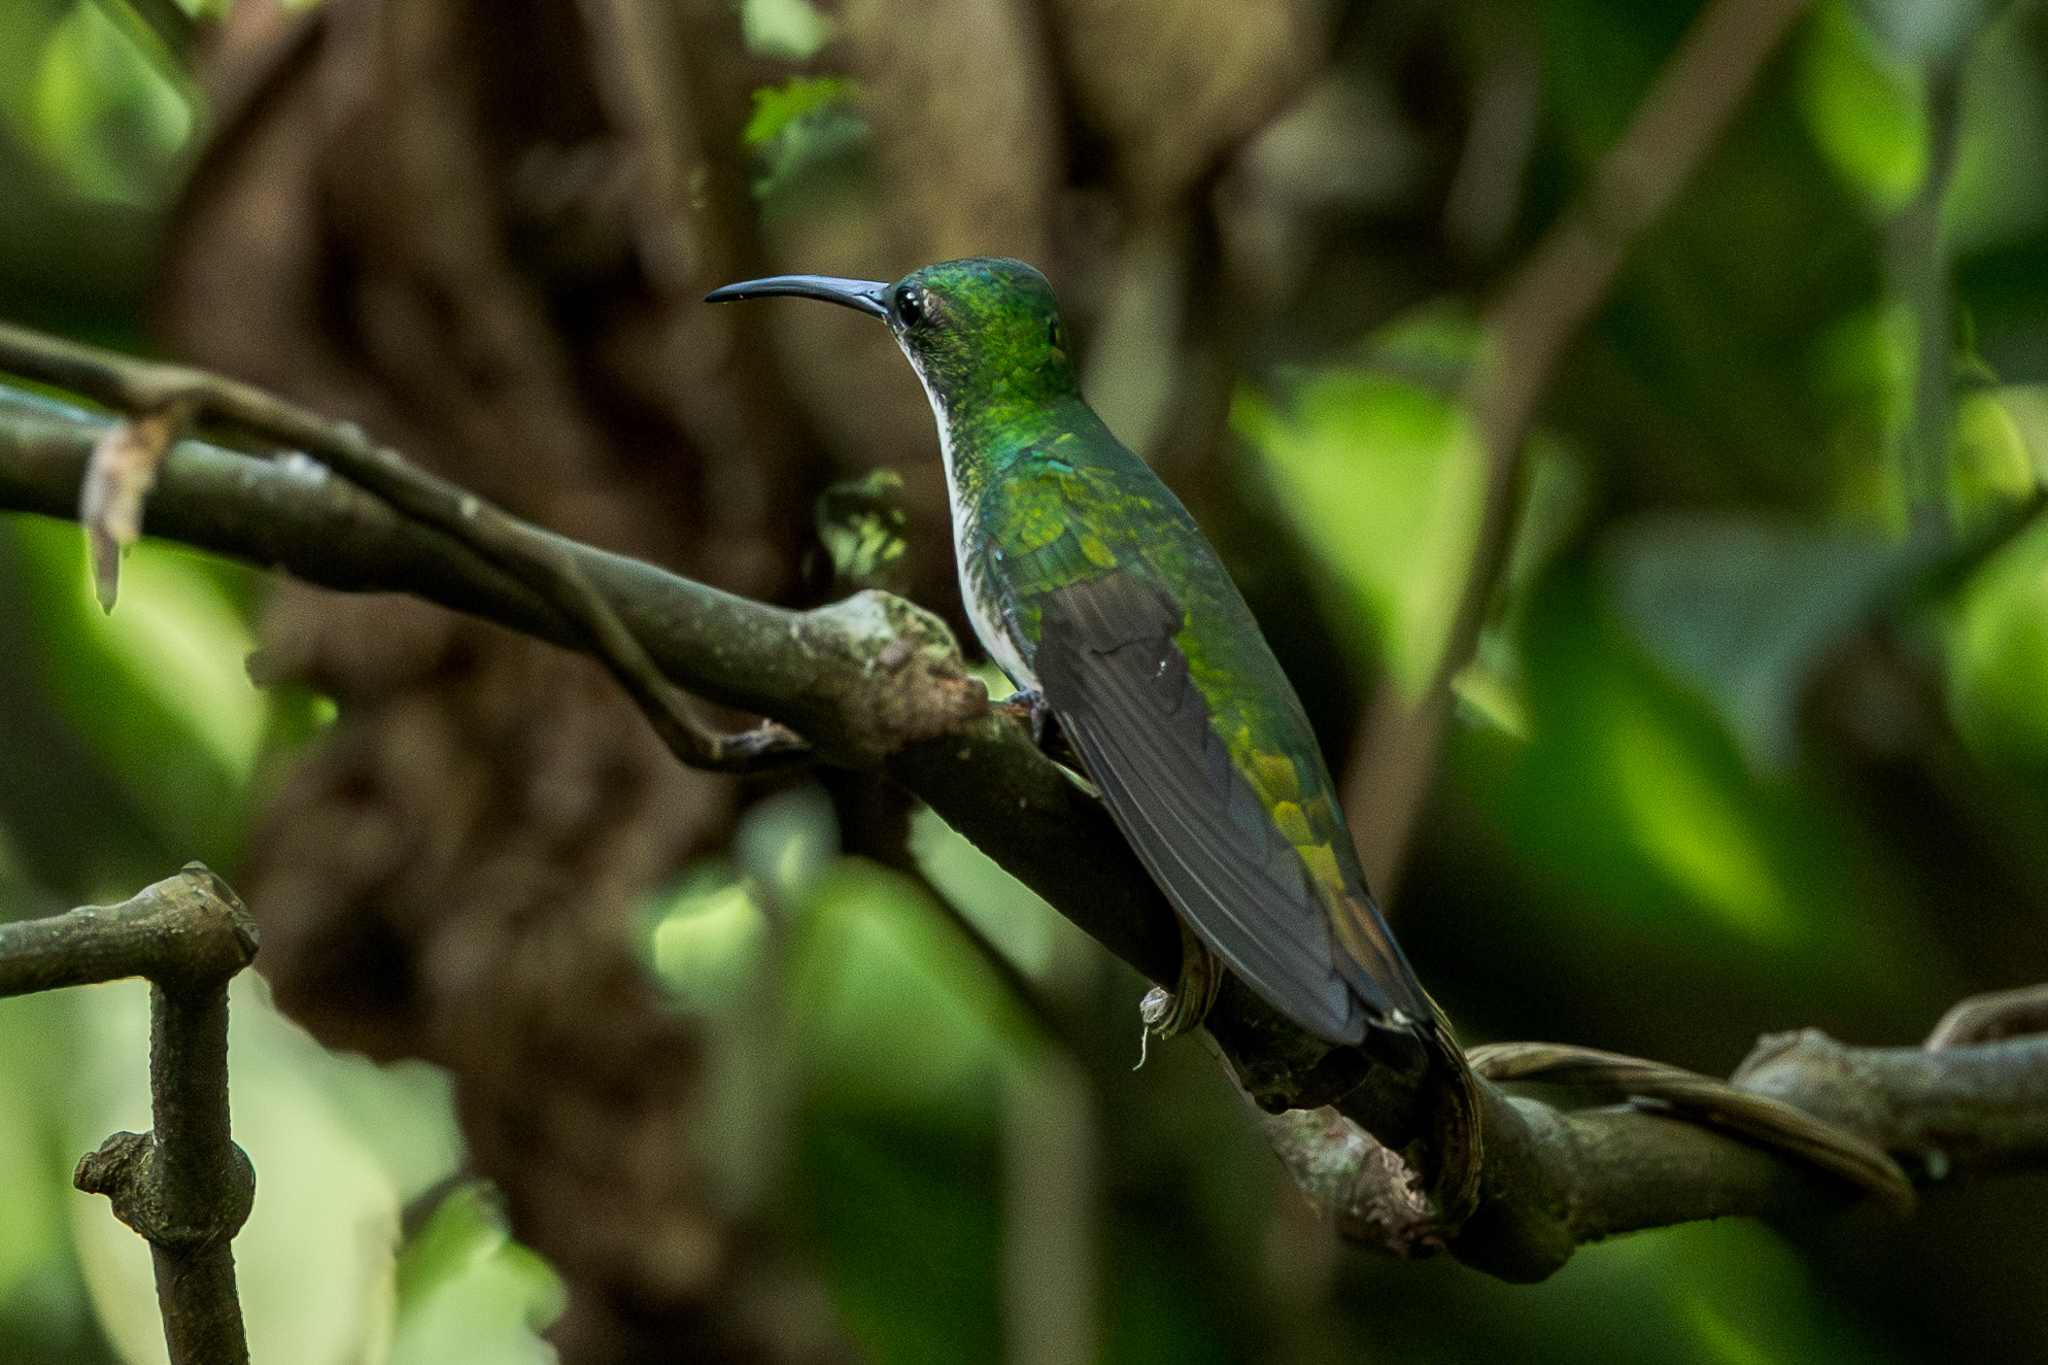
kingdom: Animalia
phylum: Chordata
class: Aves
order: Apodiformes
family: Trochilidae
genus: Anthracothorax
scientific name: Anthracothorax prevostii
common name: Green-breasted mango
